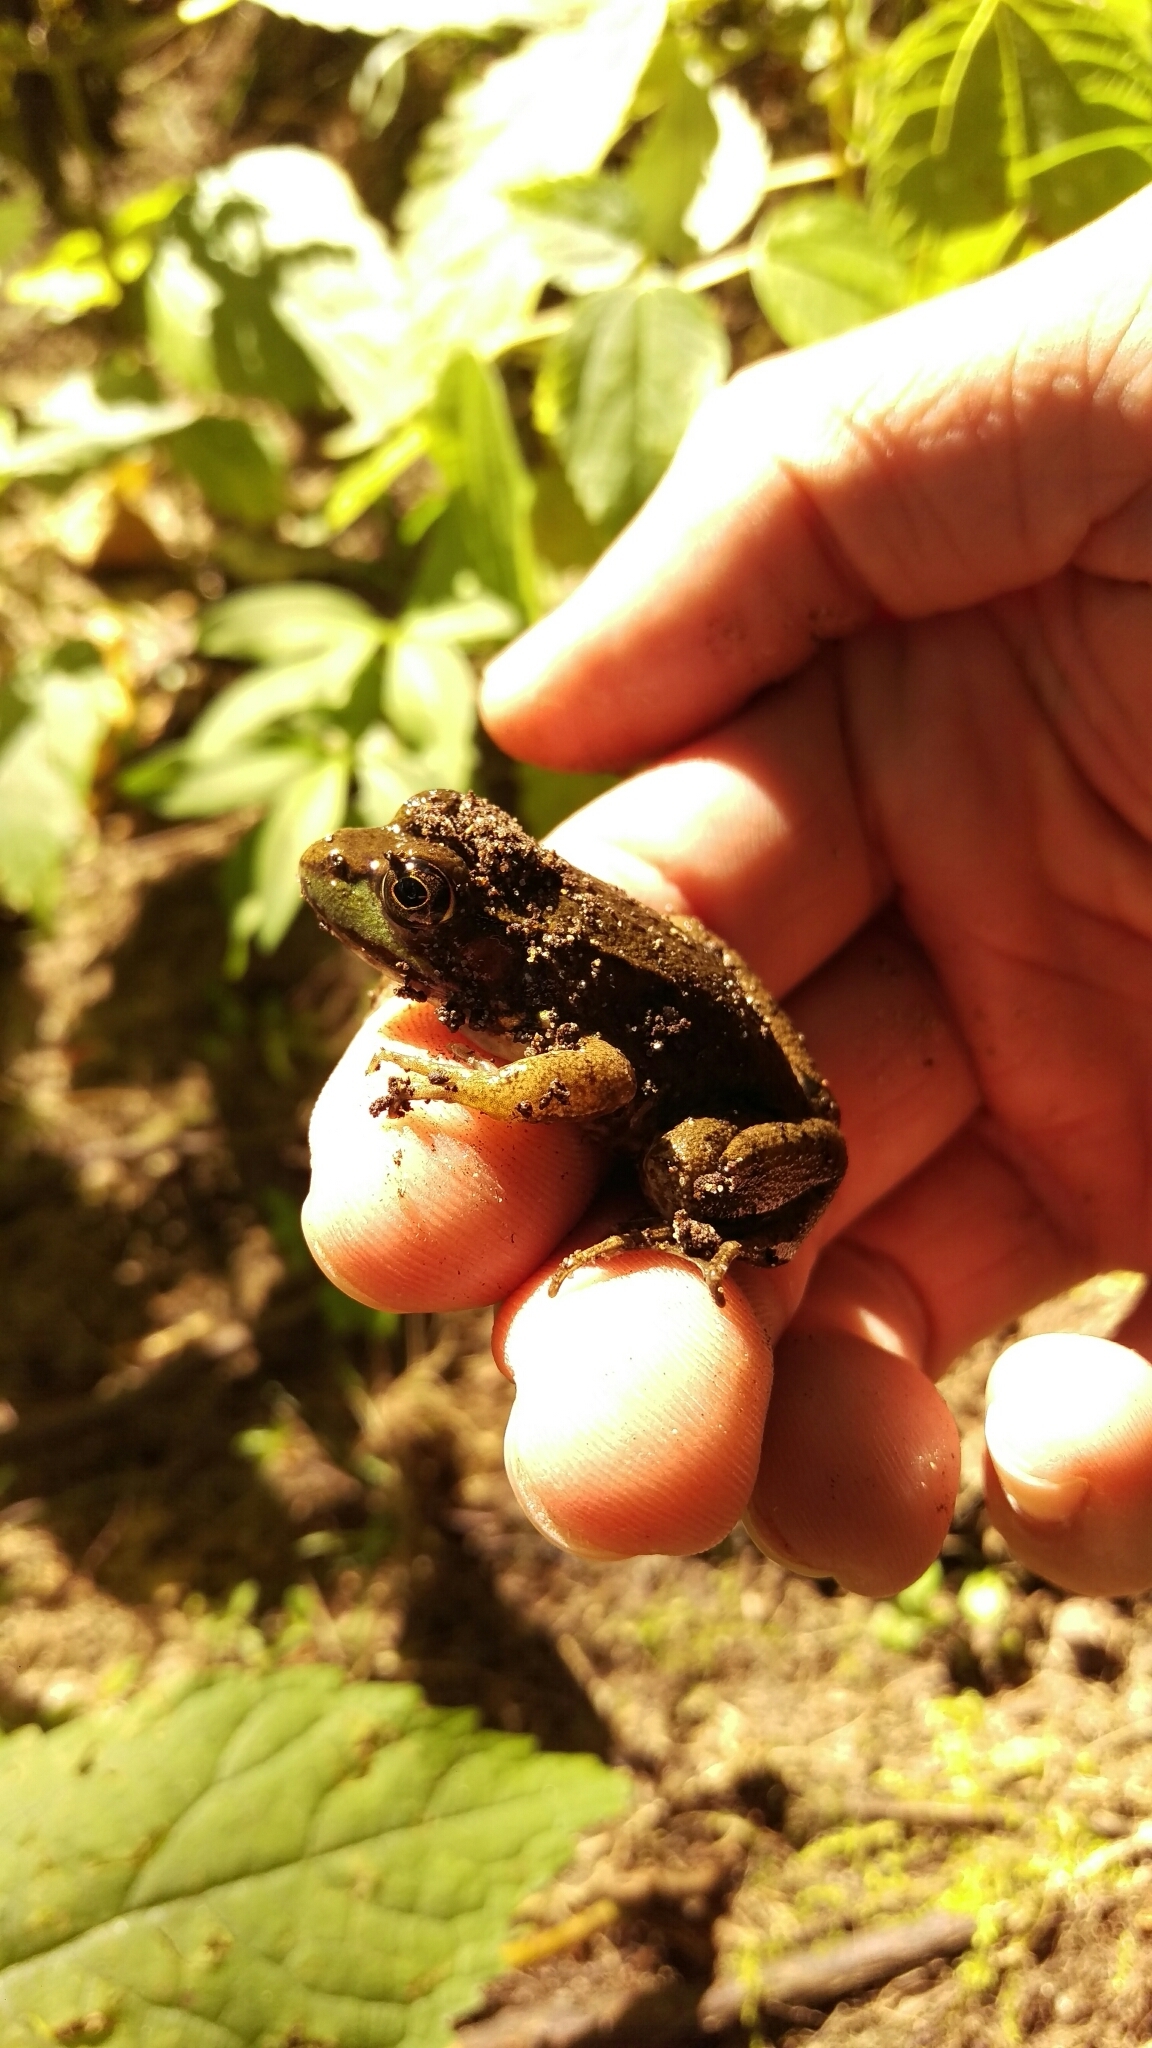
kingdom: Animalia
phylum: Chordata
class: Amphibia
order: Anura
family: Ranidae
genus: Lithobates
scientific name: Lithobates clamitans
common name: Green frog
